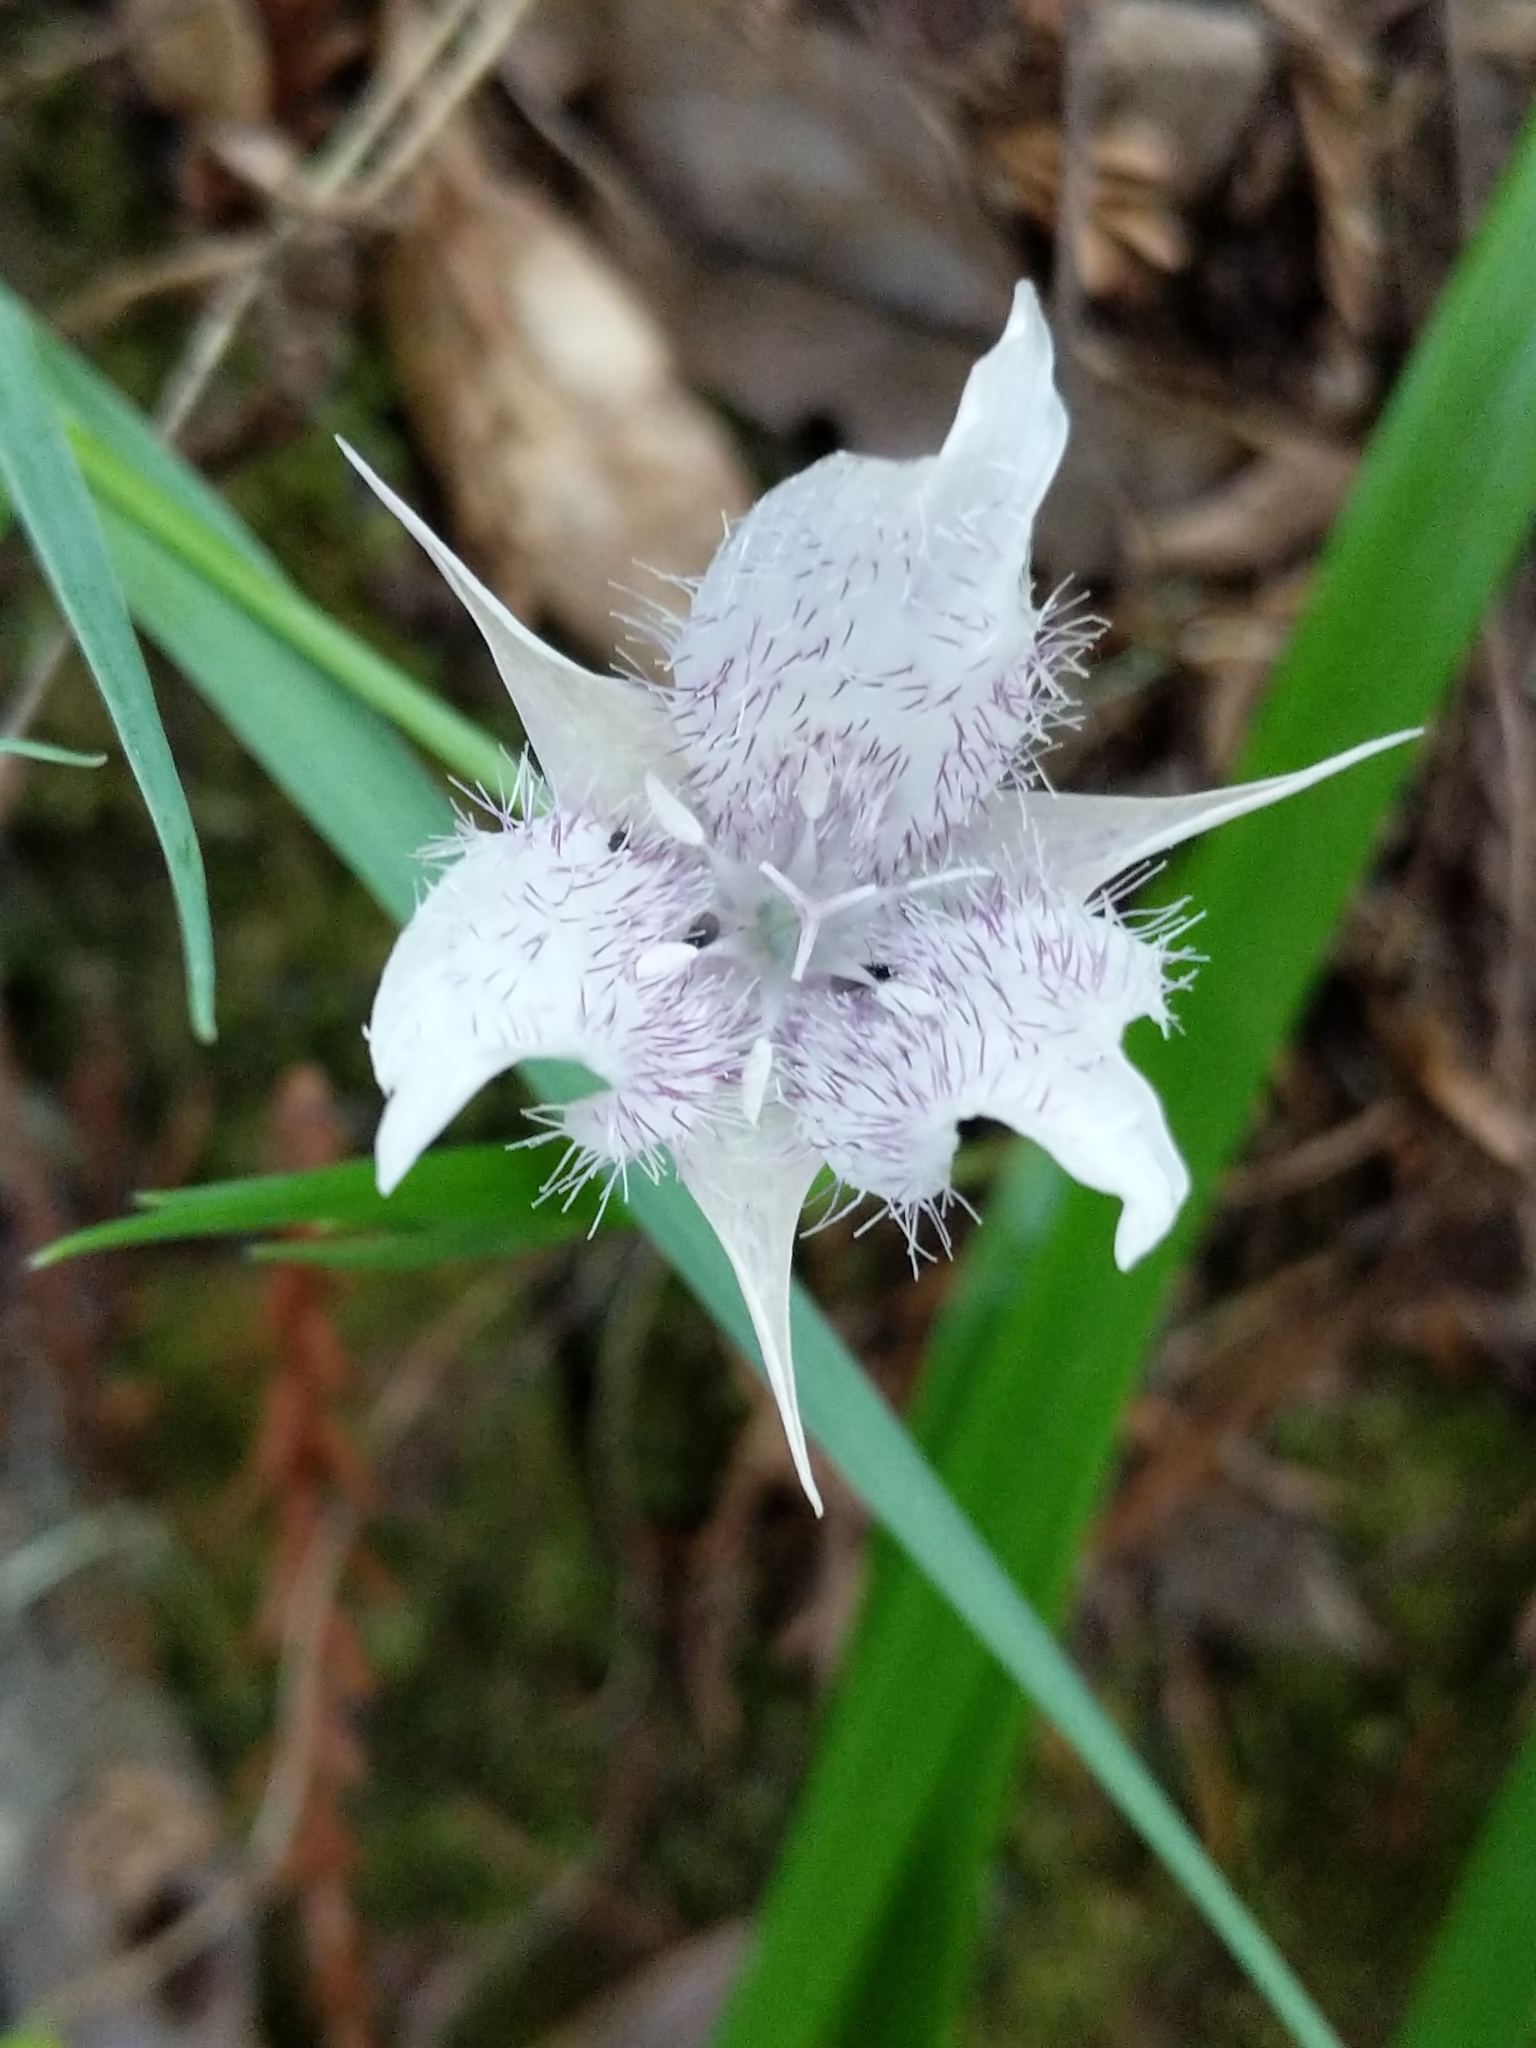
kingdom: Plantae
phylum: Tracheophyta
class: Liliopsida
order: Liliales
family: Liliaceae
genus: Calochortus
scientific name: Calochortus tolmiei
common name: Pussy-ears
